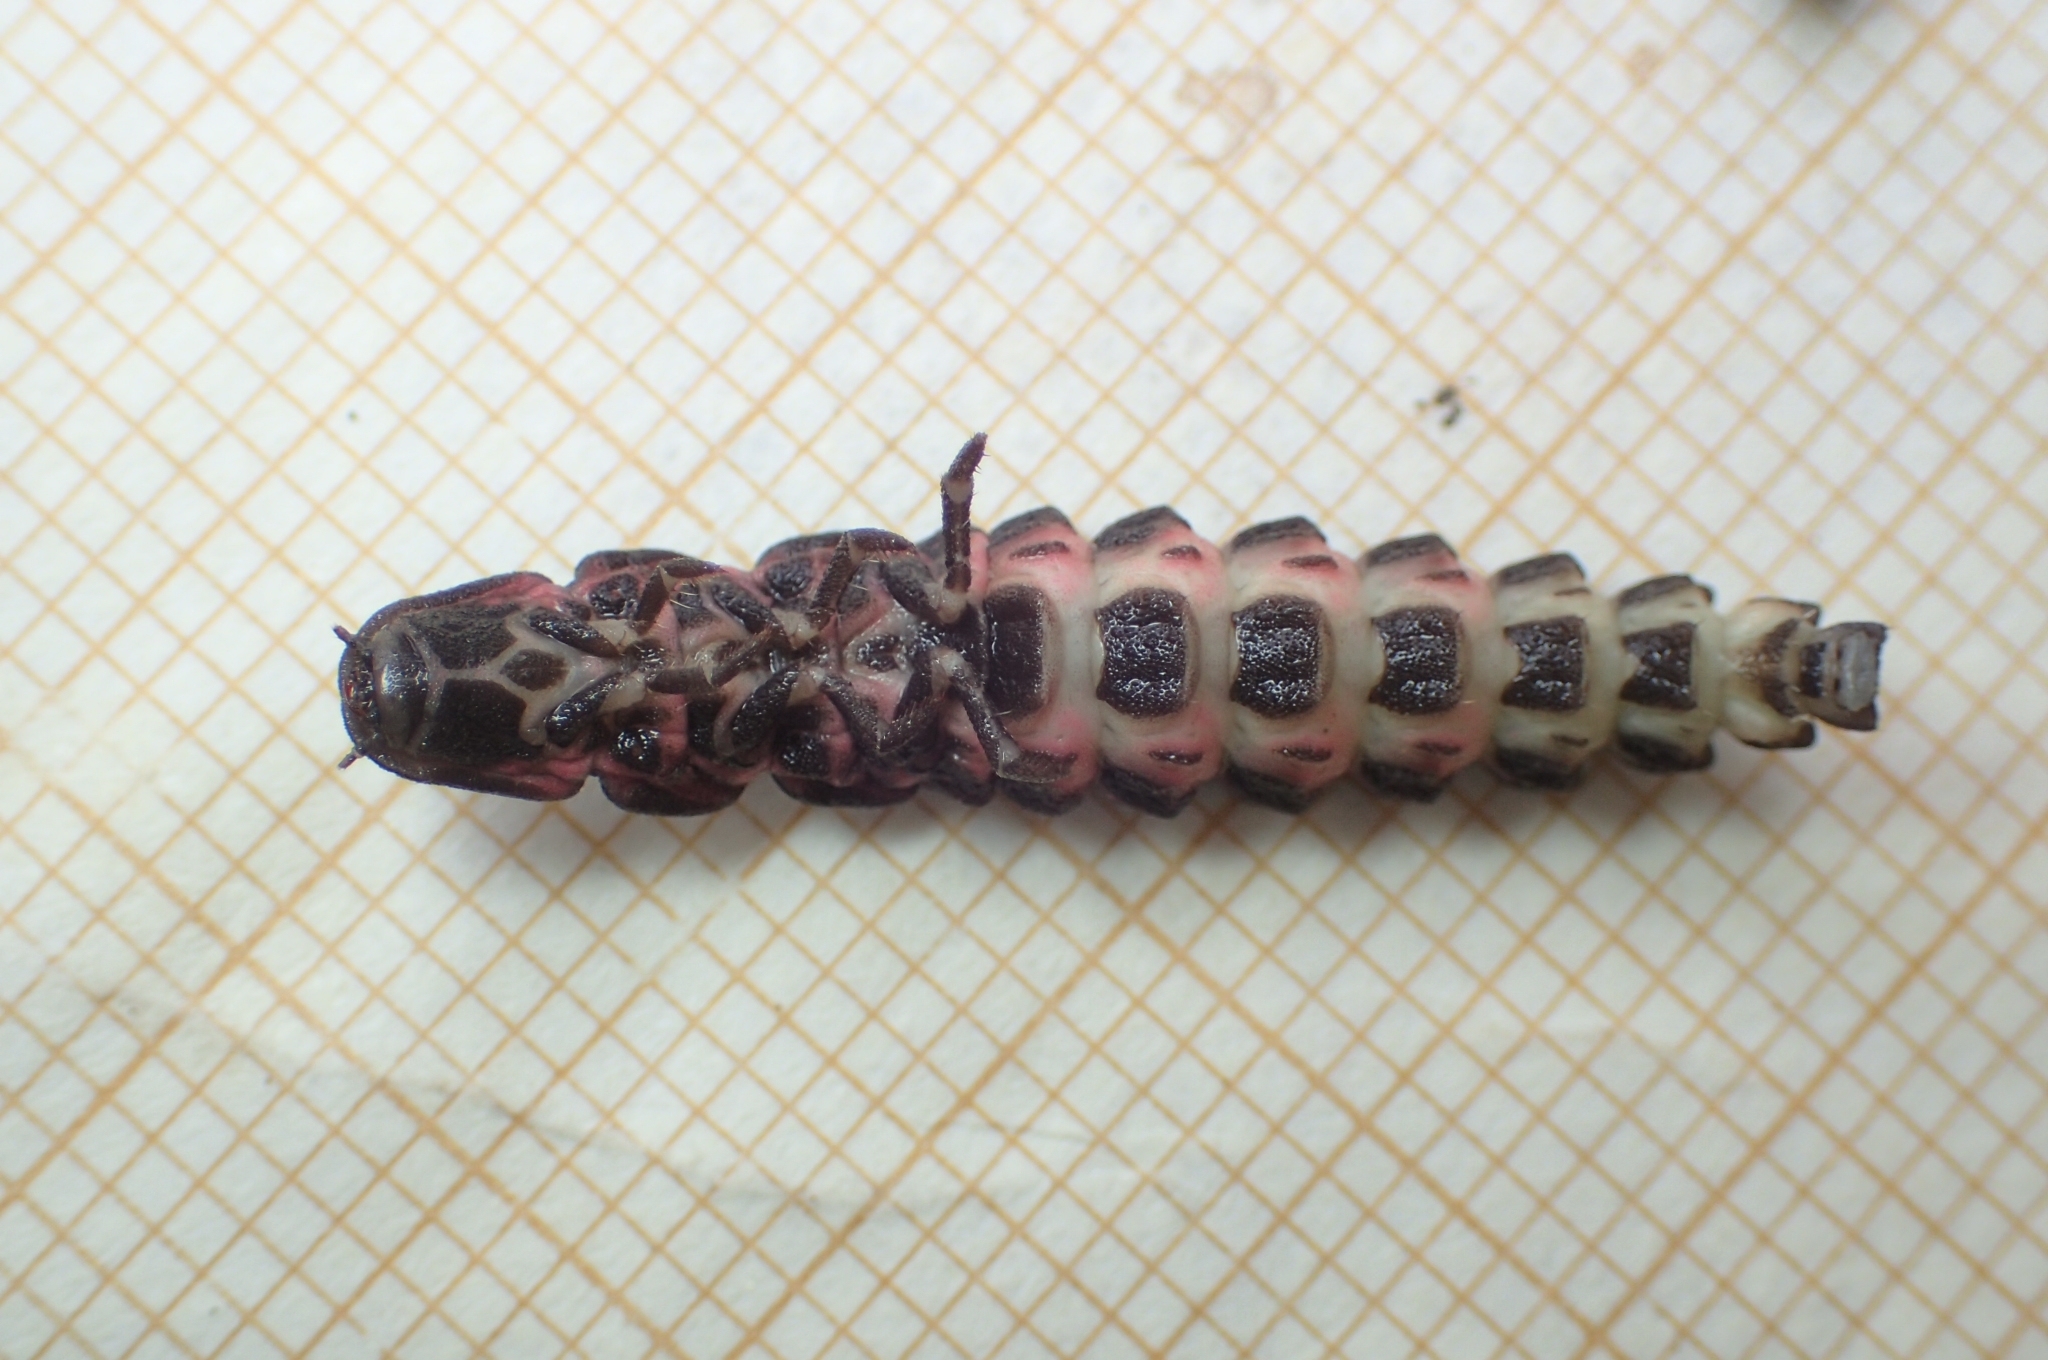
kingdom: Animalia
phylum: Arthropoda
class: Insecta
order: Coleoptera
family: Lampyridae
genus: Nyctophila
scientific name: Nyctophila reichii
